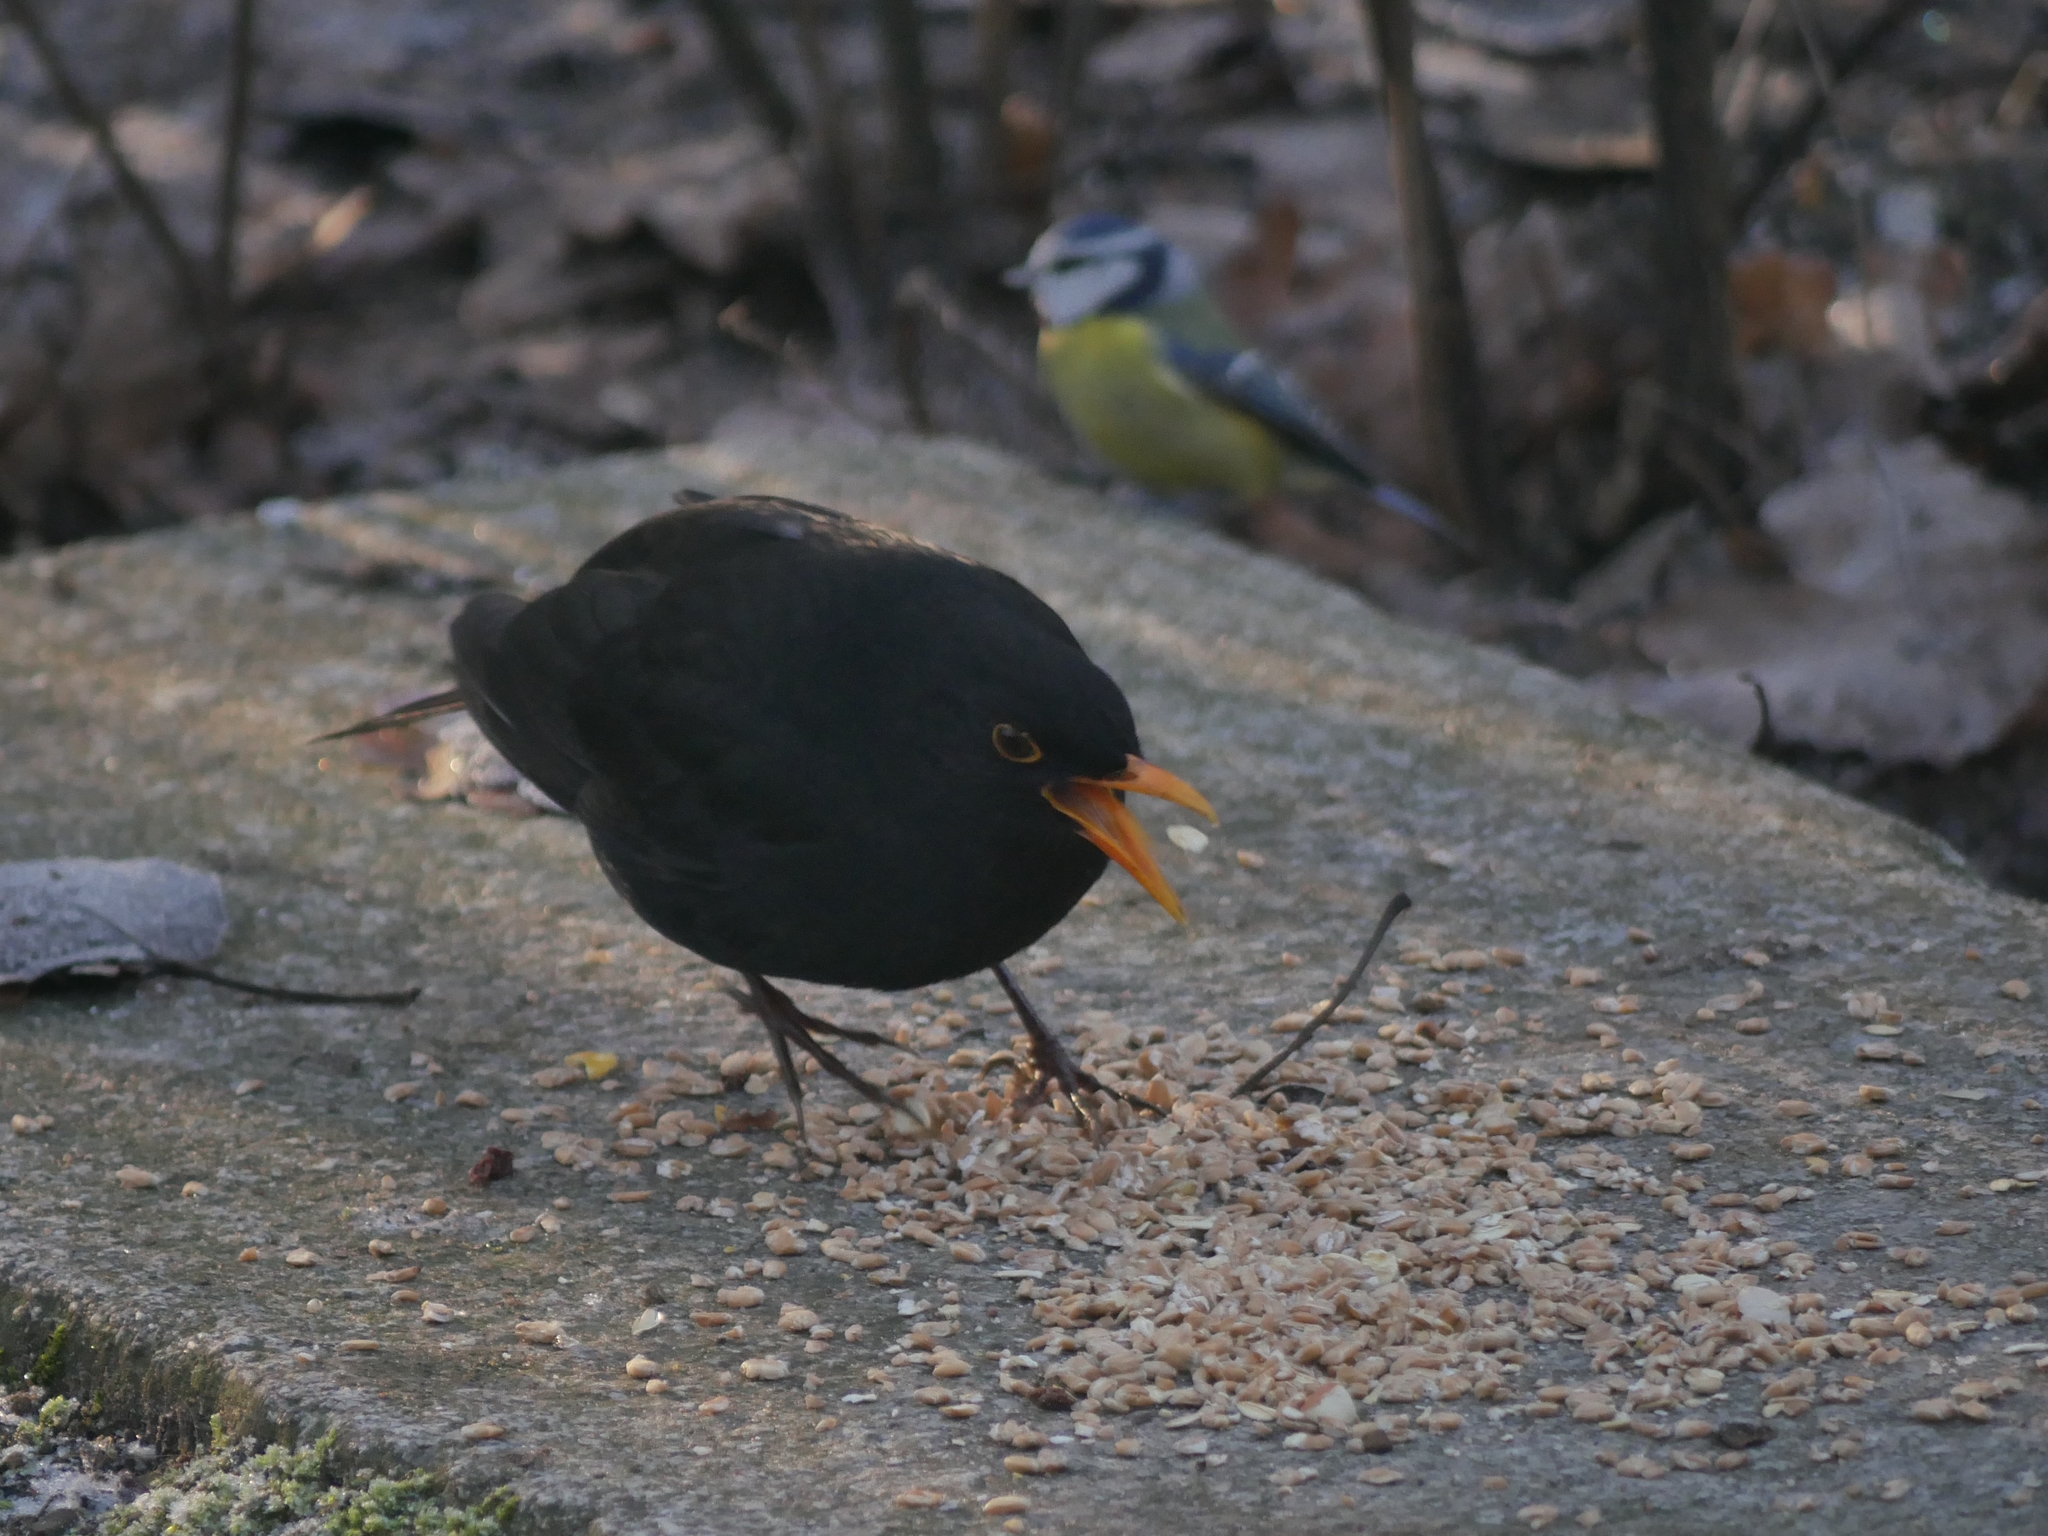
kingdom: Animalia
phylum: Chordata
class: Aves
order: Passeriformes
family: Turdidae
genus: Turdus
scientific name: Turdus merula
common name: Common blackbird
